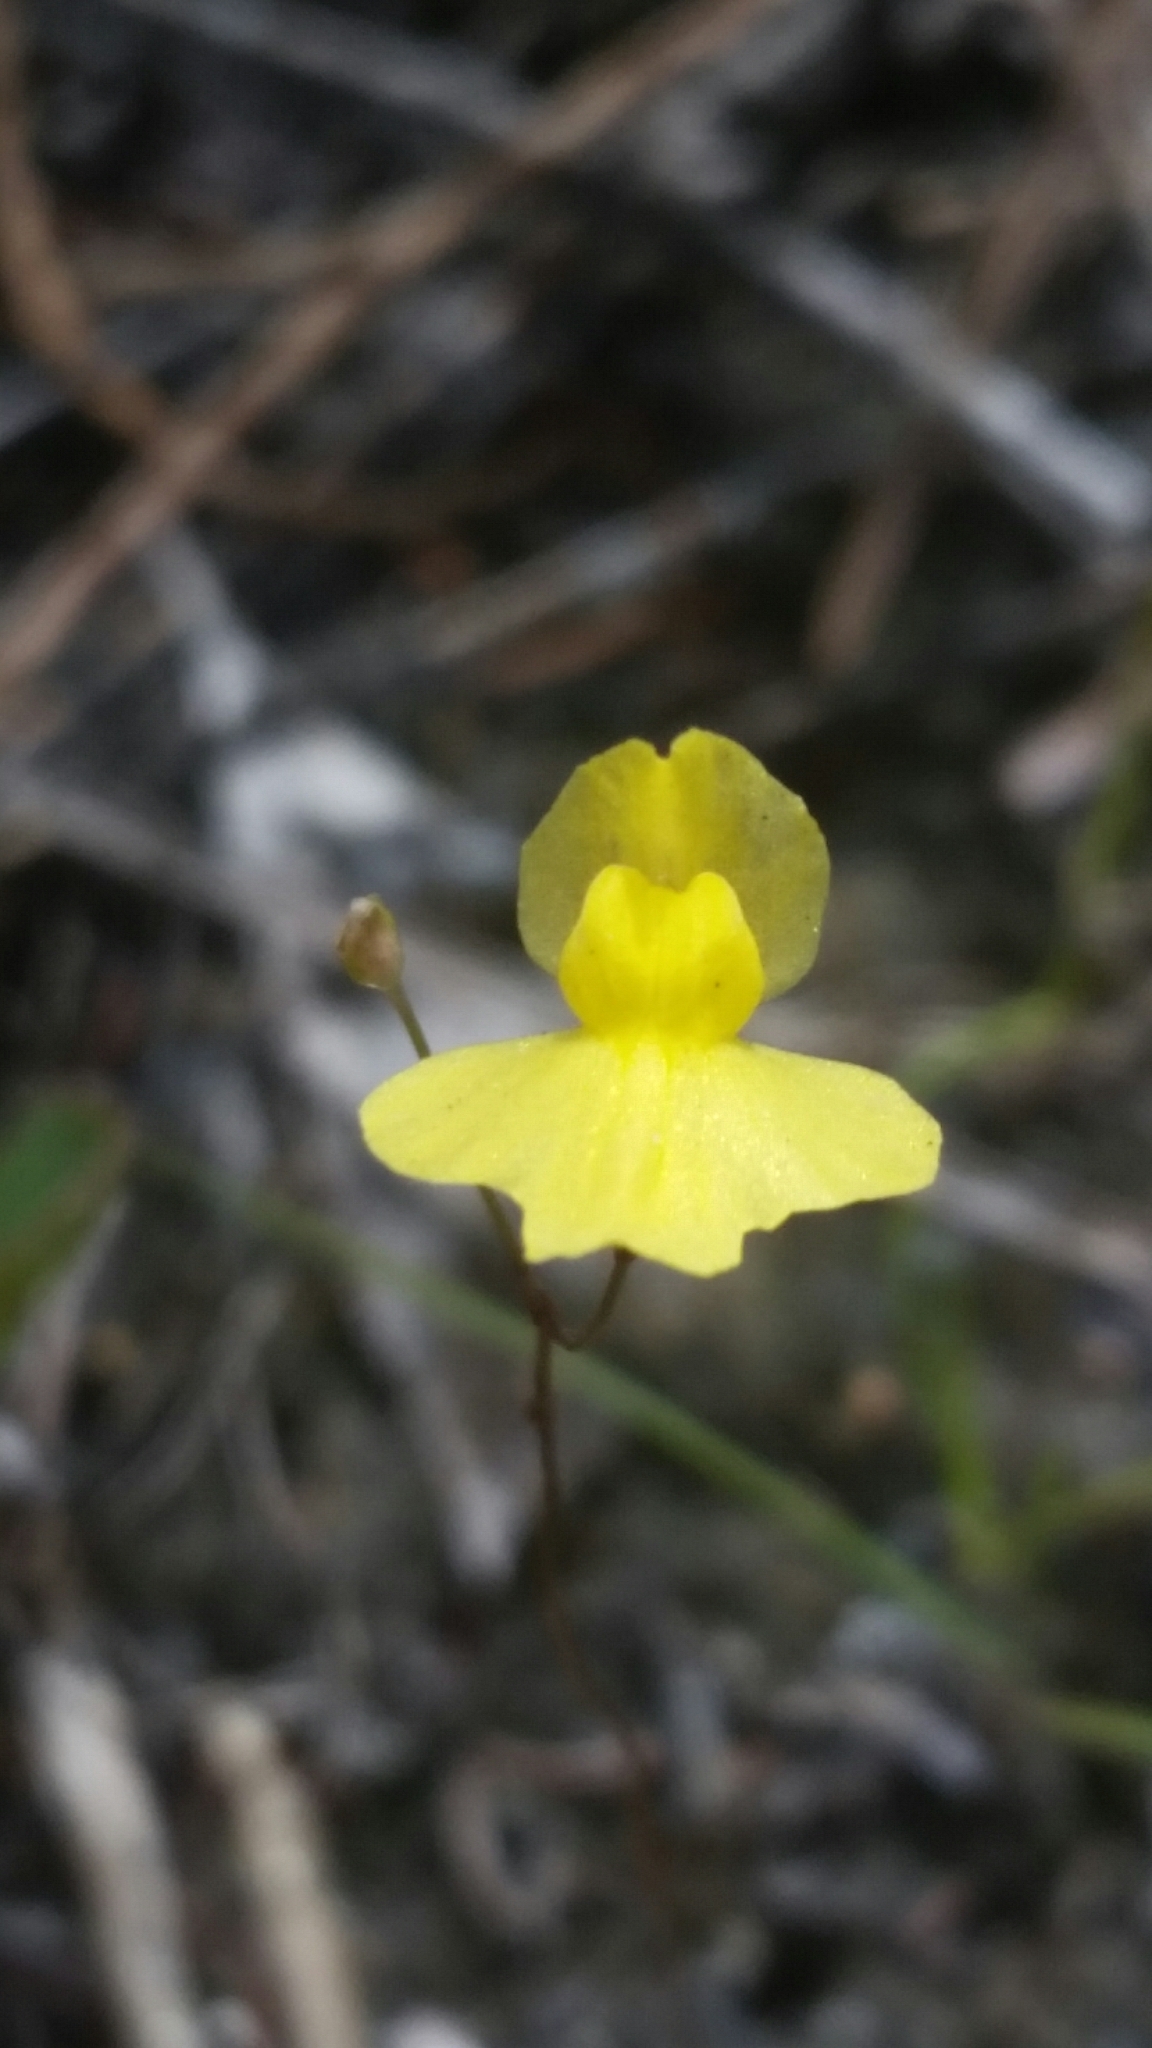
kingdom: Plantae
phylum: Tracheophyta
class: Magnoliopsida
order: Lamiales
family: Lentibulariaceae
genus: Utricularia
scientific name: Utricularia subulata
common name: Tiny bladderwort
